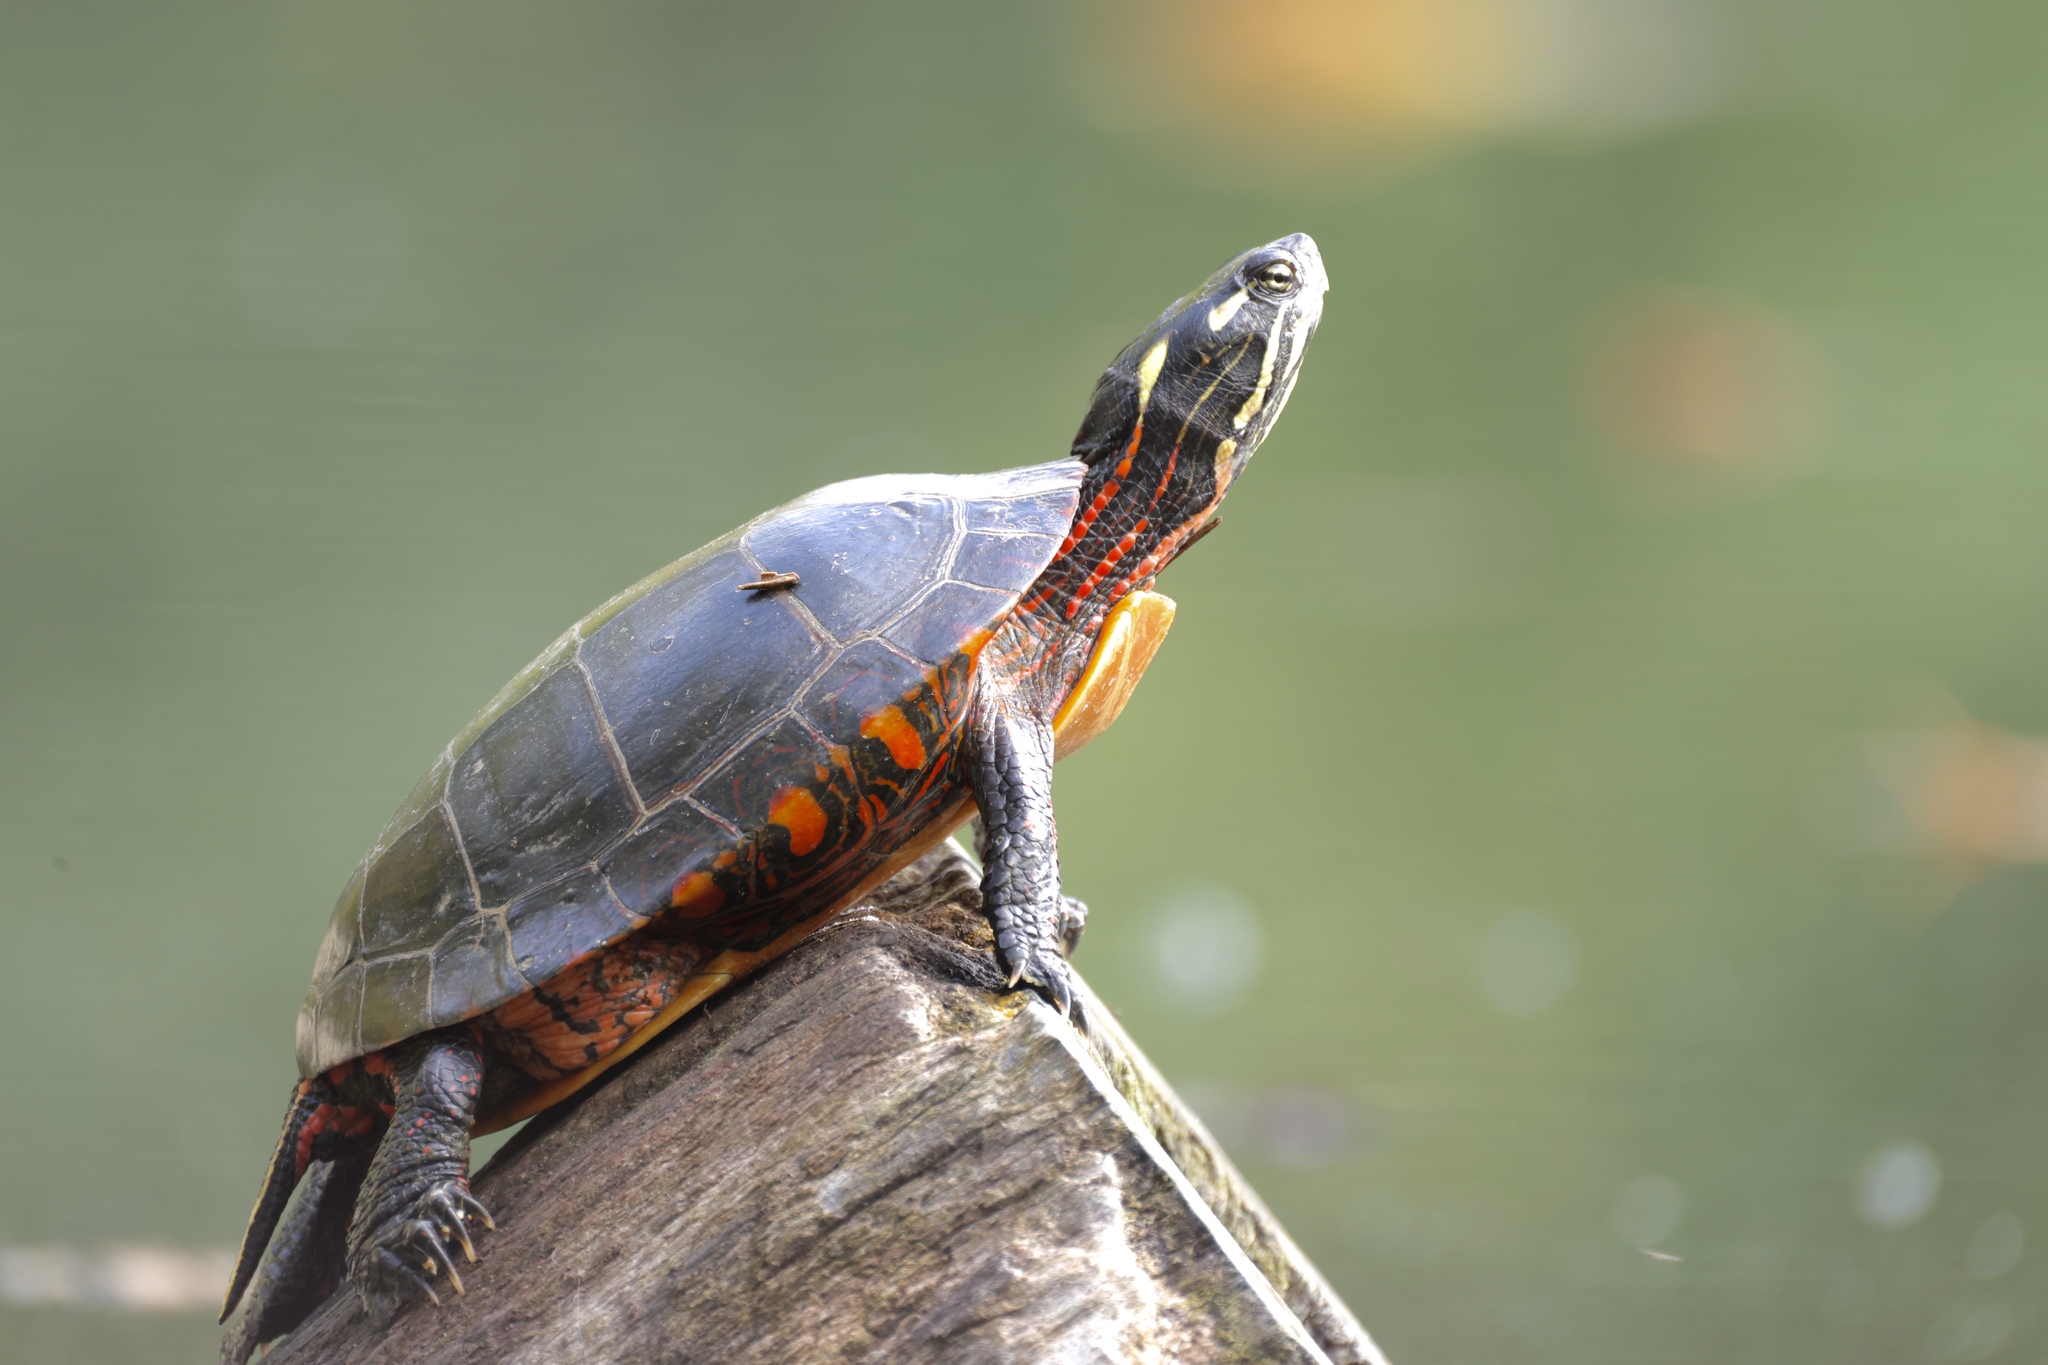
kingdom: Animalia
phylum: Chordata
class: Testudines
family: Emydidae
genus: Chrysemys
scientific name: Chrysemys picta
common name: Painted turtle
